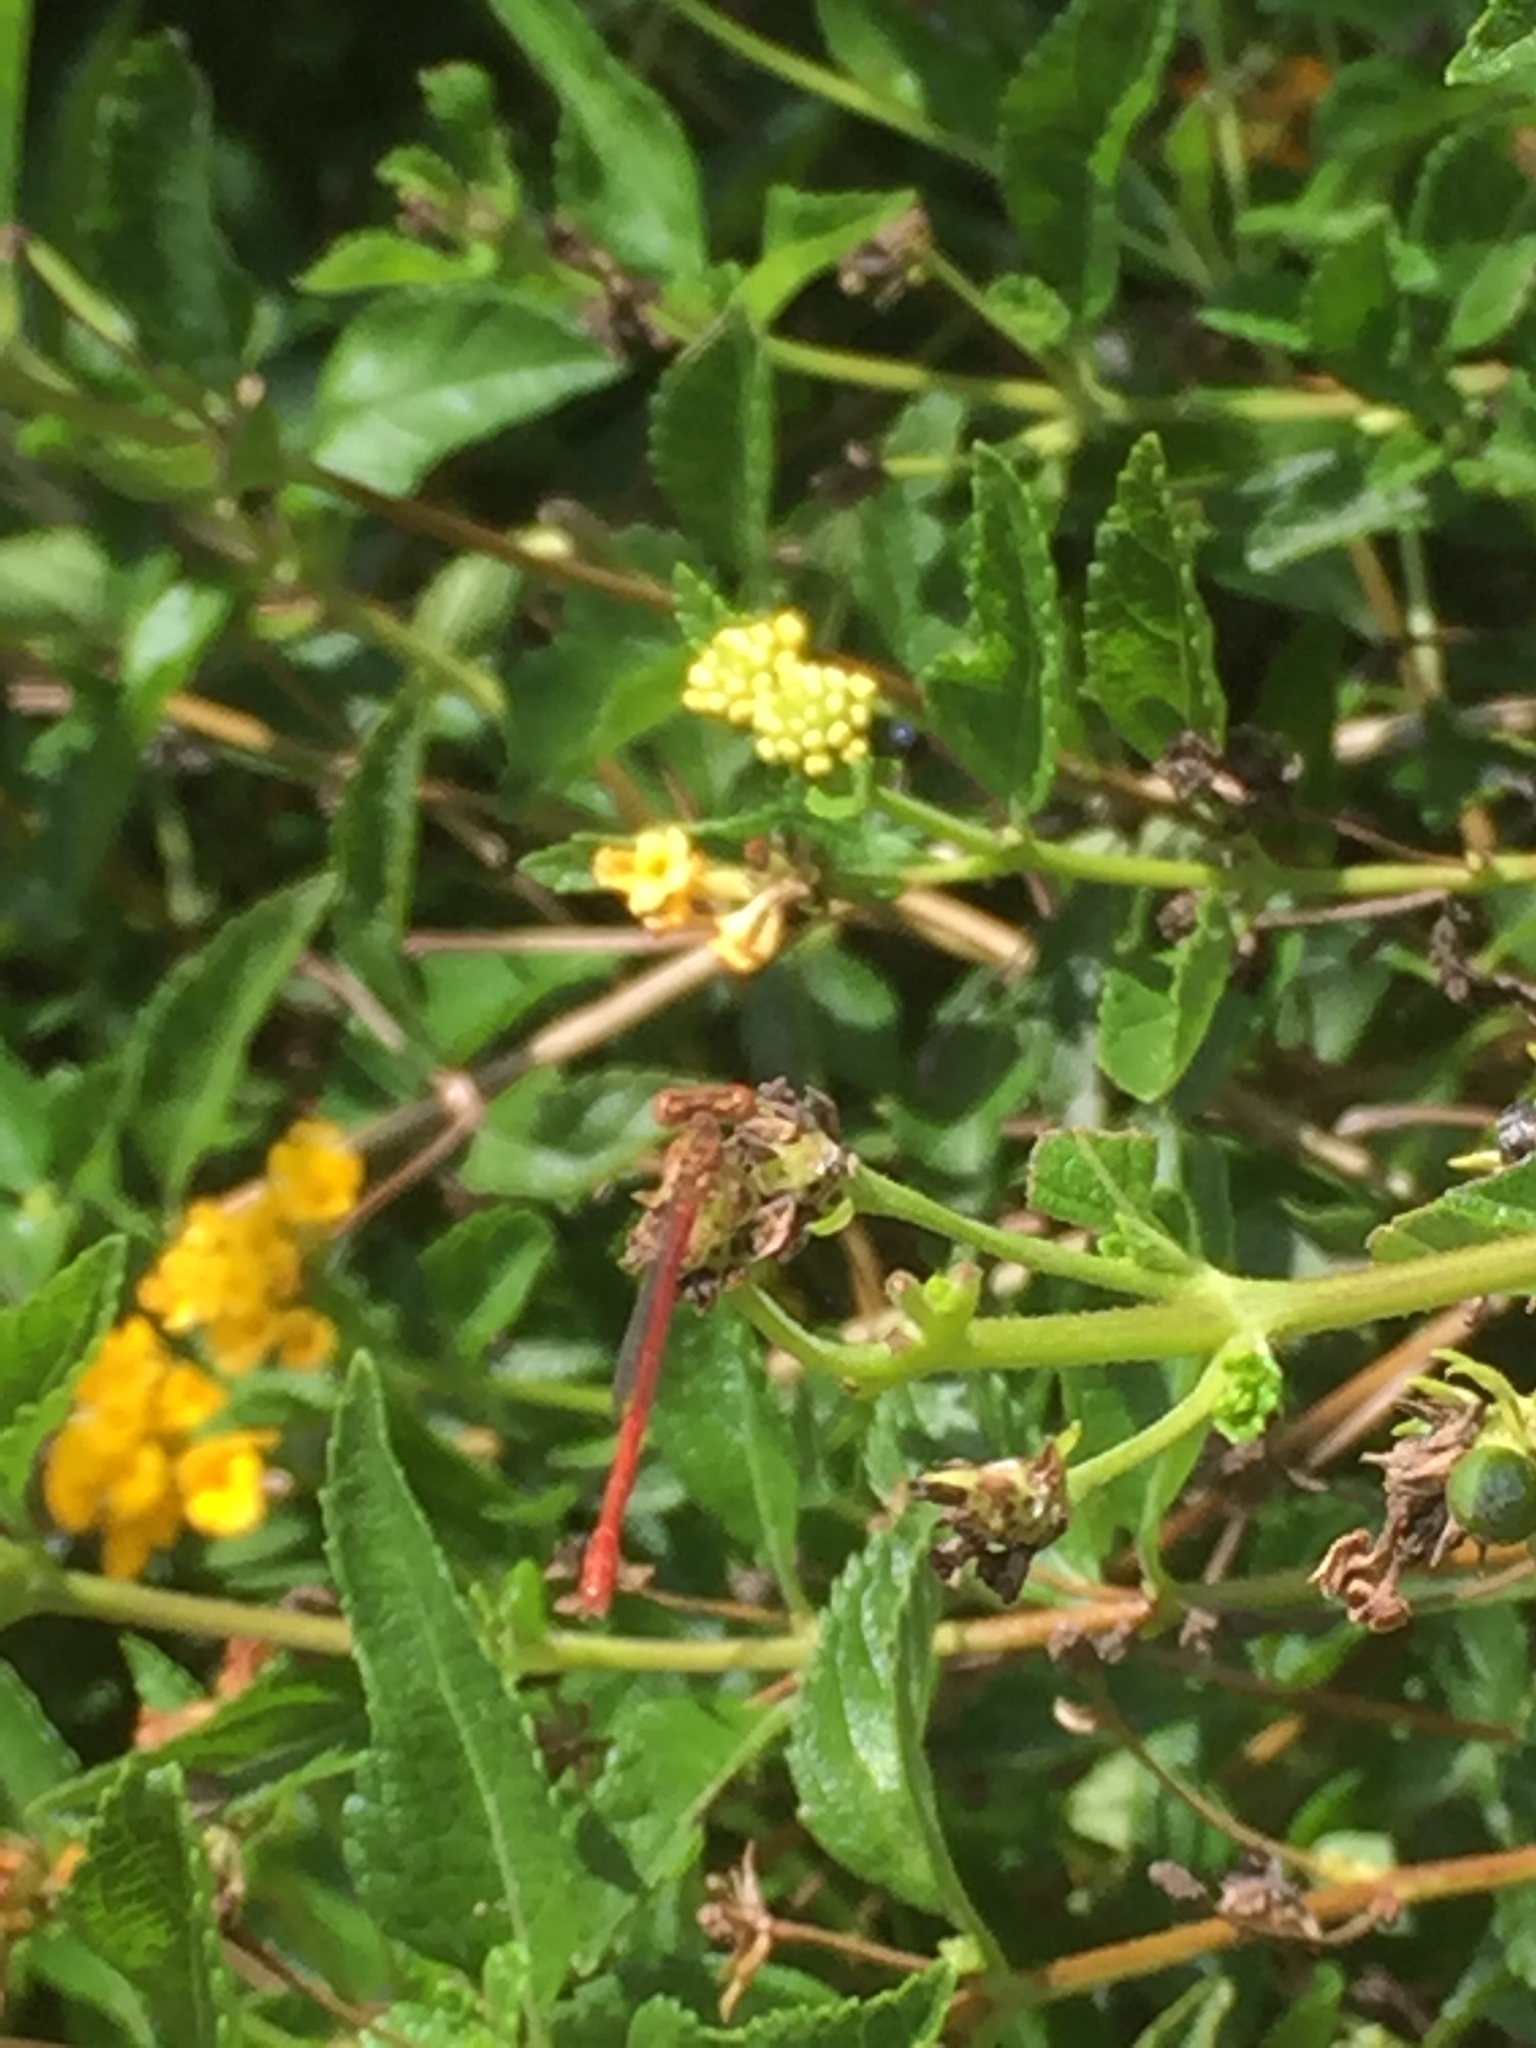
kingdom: Animalia
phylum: Arthropoda
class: Insecta
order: Odonata
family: Coenagrionidae
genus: Telebasis
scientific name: Telebasis salva
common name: Desert firetail
